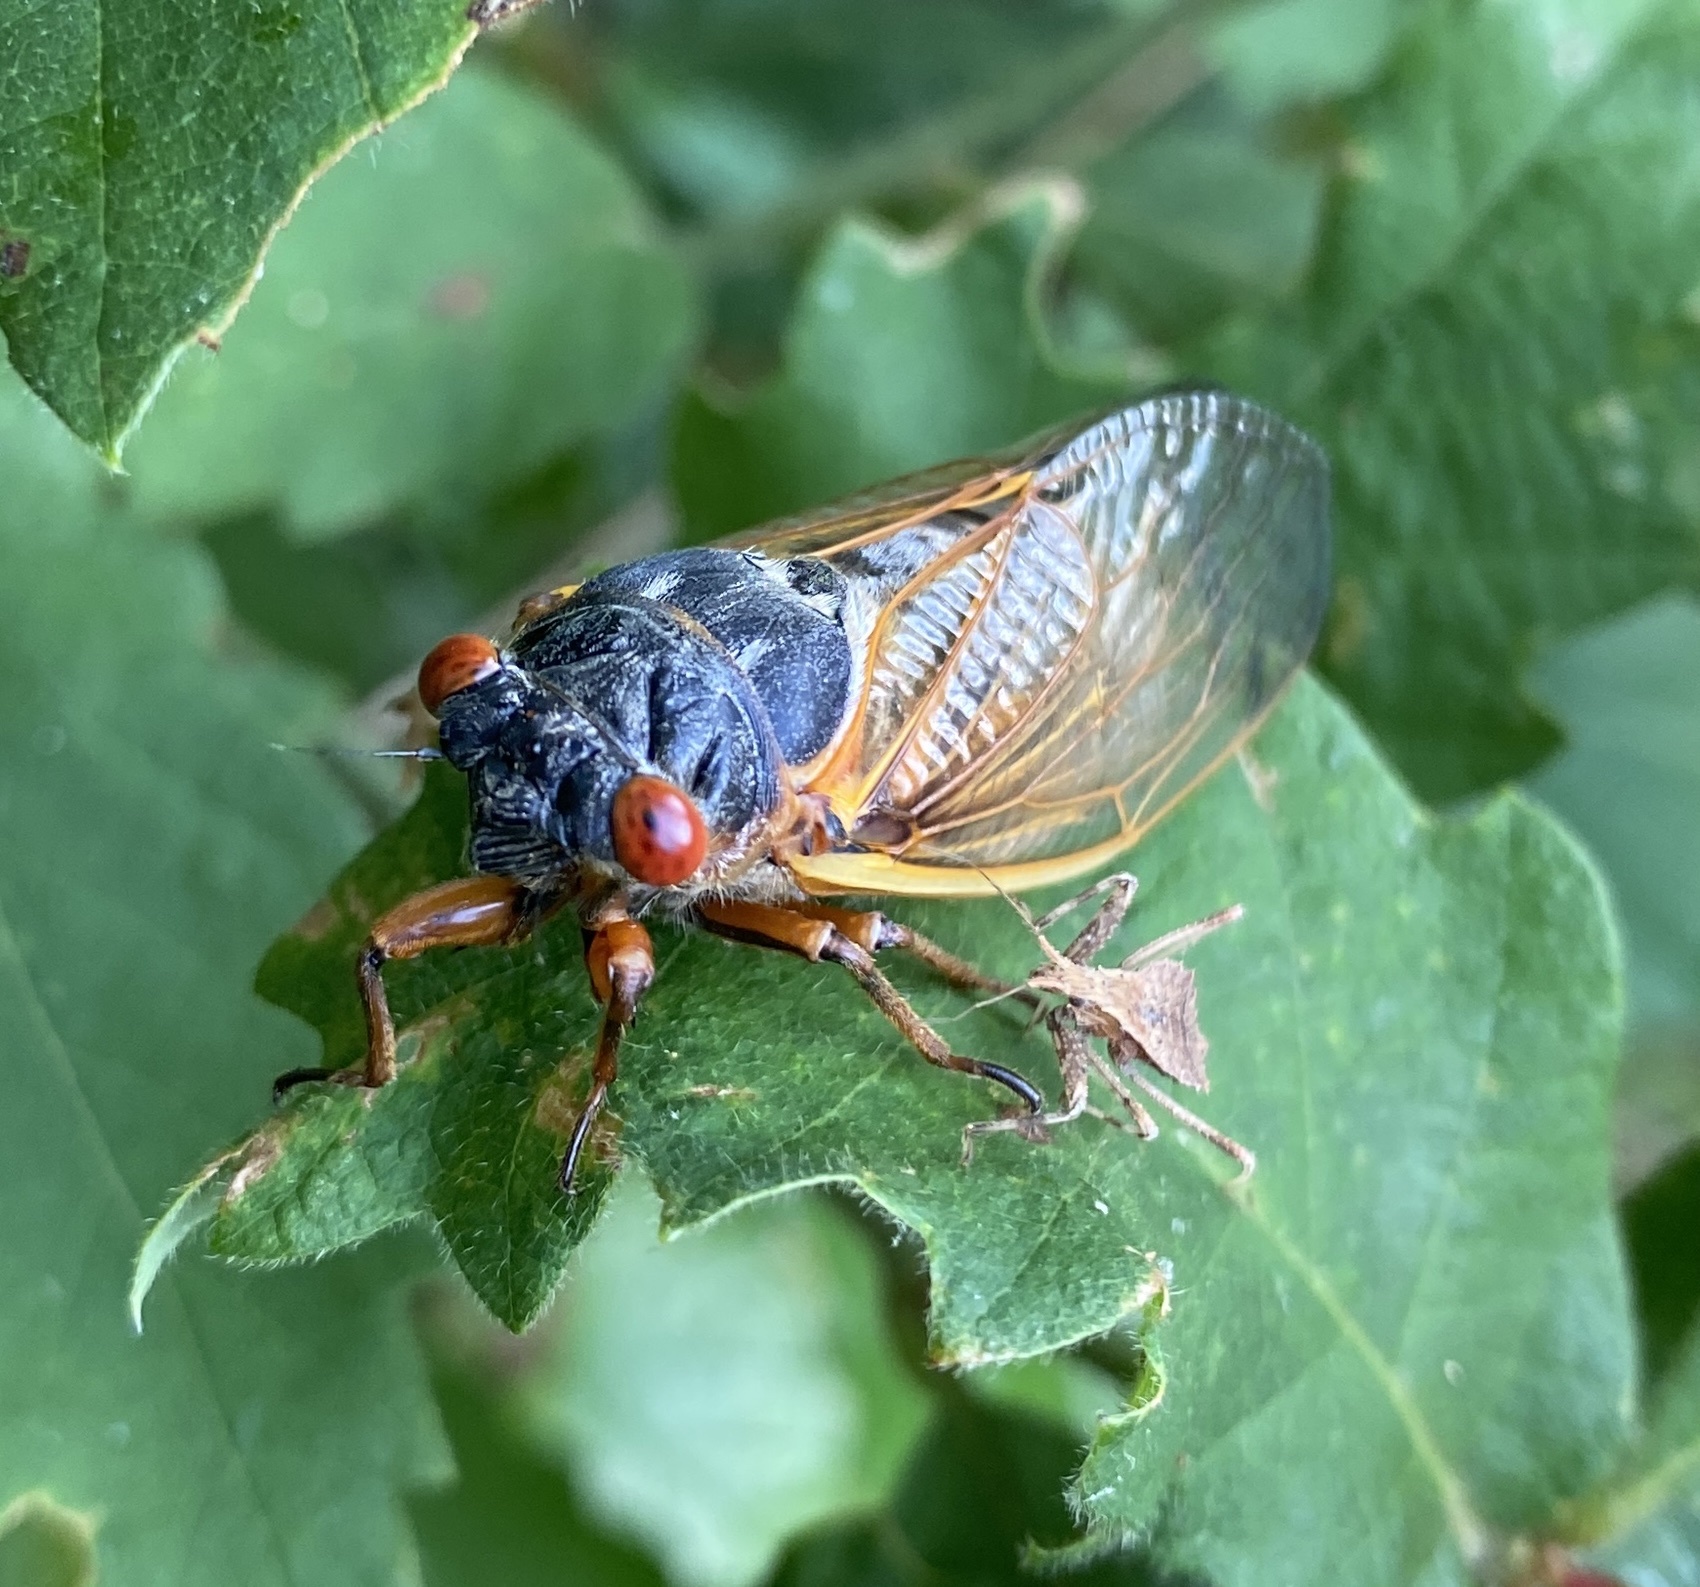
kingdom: Animalia
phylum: Arthropoda
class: Insecta
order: Hemiptera
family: Cicadidae
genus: Magicicada
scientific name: Magicicada tredecim
